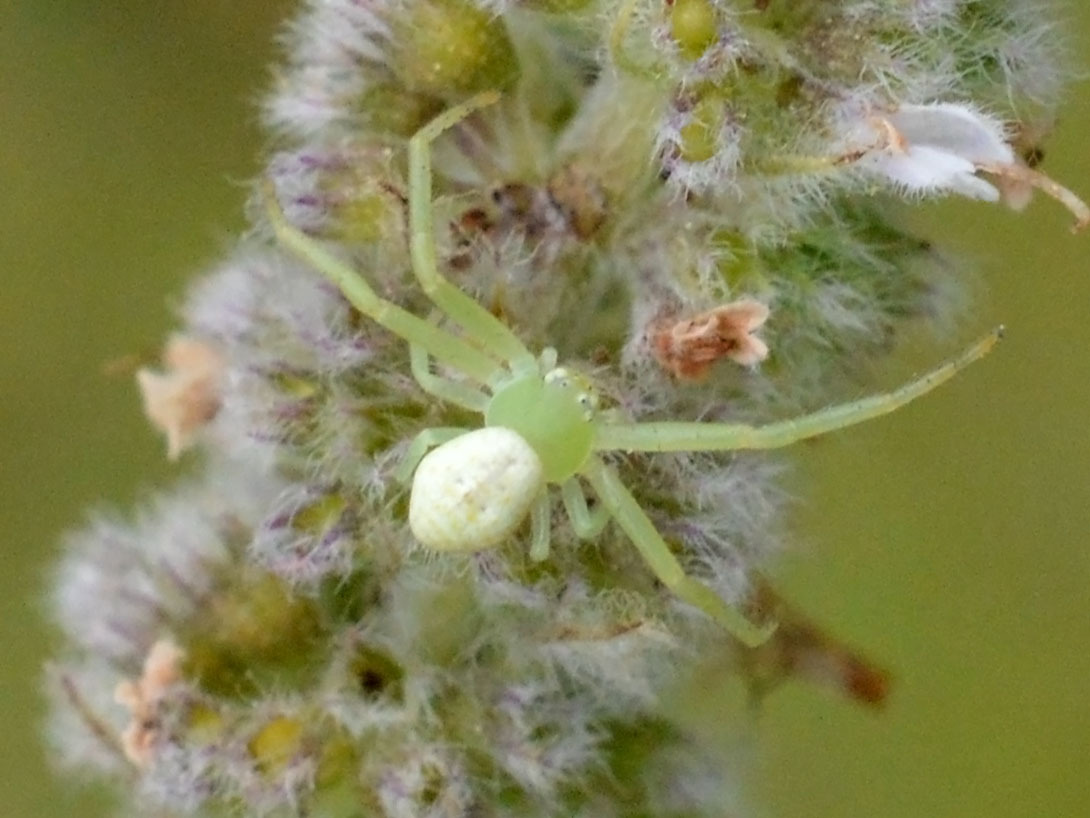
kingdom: Animalia
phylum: Arthropoda
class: Arachnida
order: Araneae
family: Thomisidae
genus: Ebrechtella
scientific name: Ebrechtella tricuspidata
